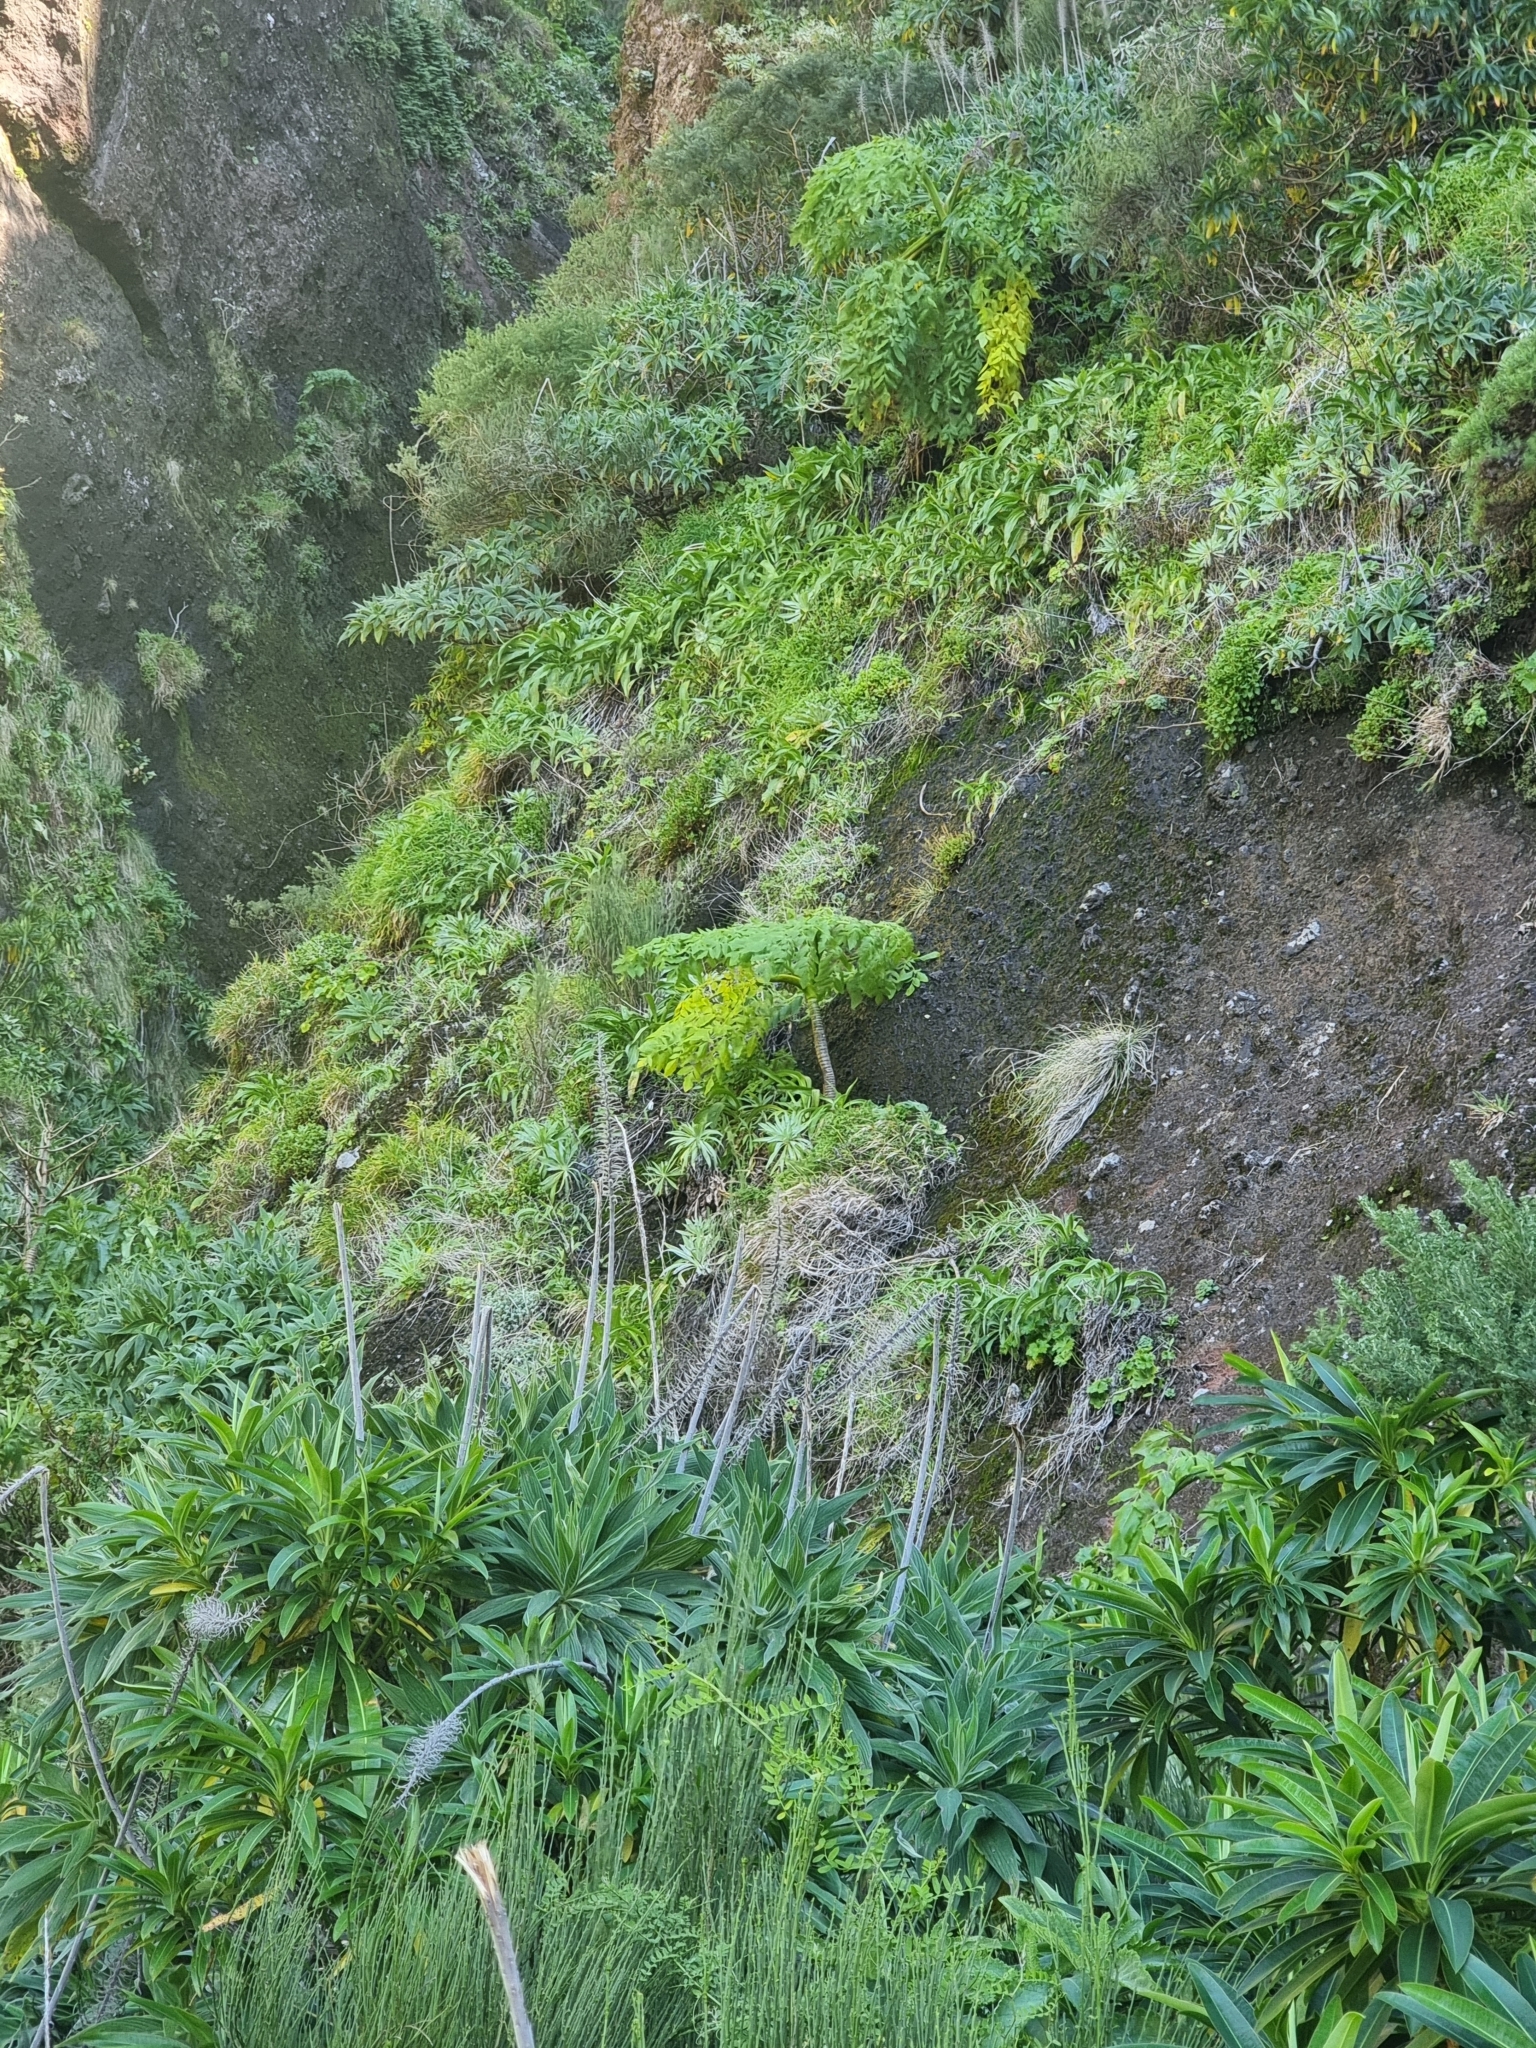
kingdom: Plantae
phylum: Tracheophyta
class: Magnoliopsida
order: Apiales
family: Apiaceae
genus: Daucus
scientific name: Daucus decipiens
